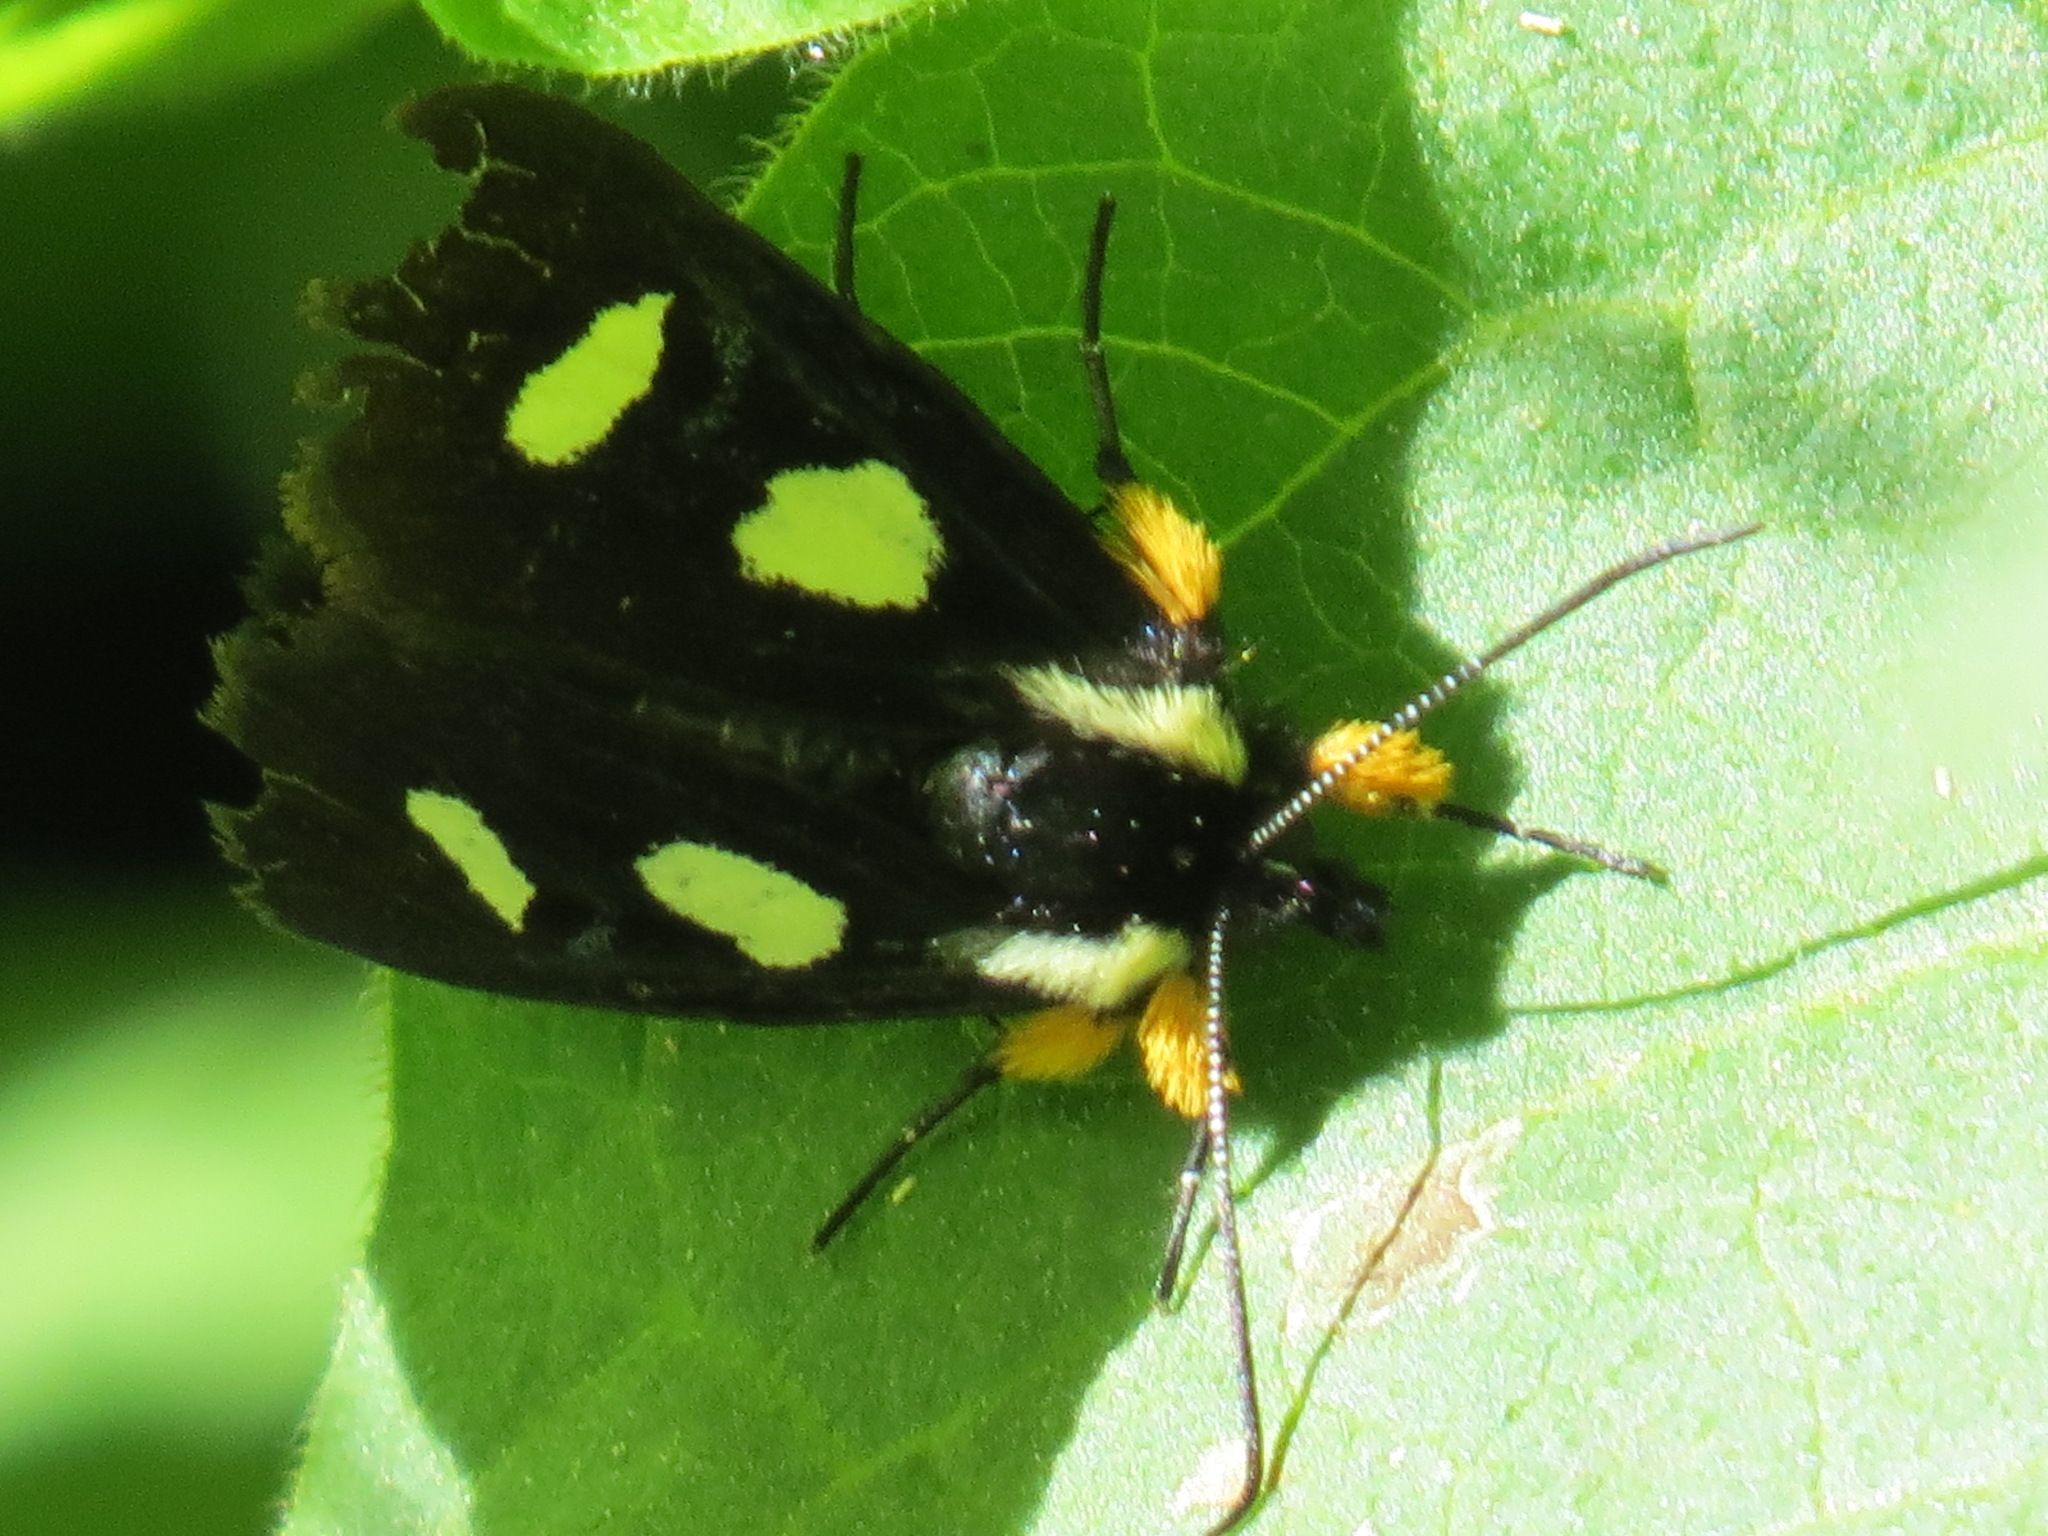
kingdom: Animalia
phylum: Arthropoda
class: Insecta
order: Lepidoptera
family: Noctuidae
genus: Alypia
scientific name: Alypia langtonii
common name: Fireweed caterpillar
